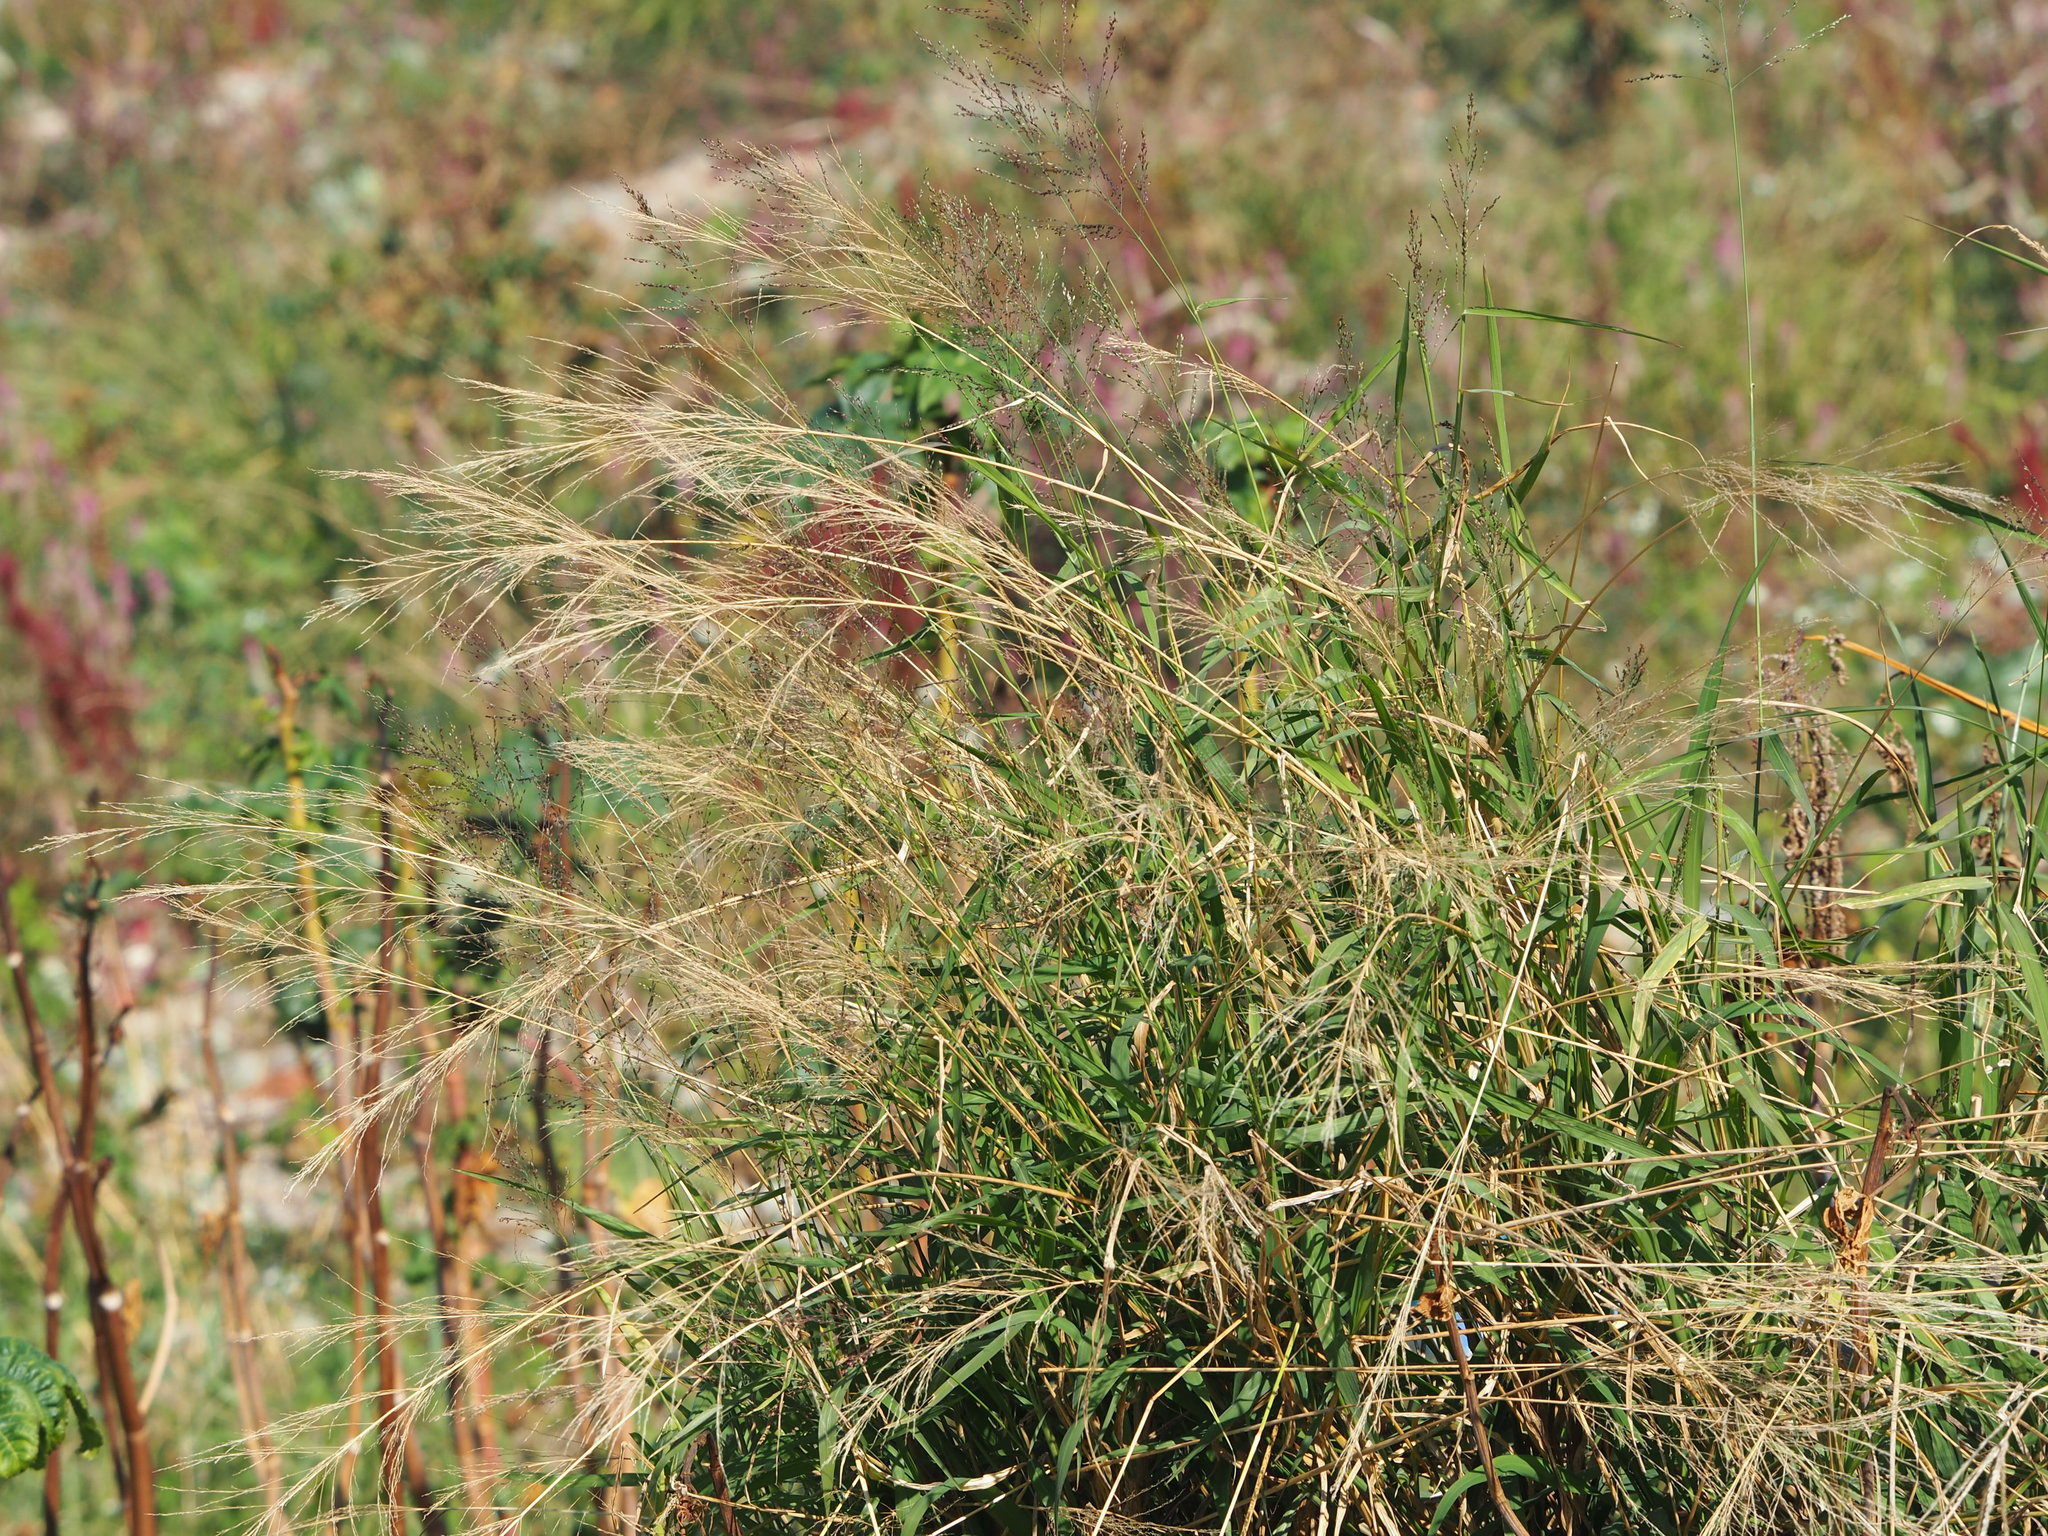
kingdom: Plantae
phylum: Tracheophyta
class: Liliopsida
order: Poales
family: Poaceae
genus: Megathyrsus
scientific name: Megathyrsus maximus
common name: Guineagrass
